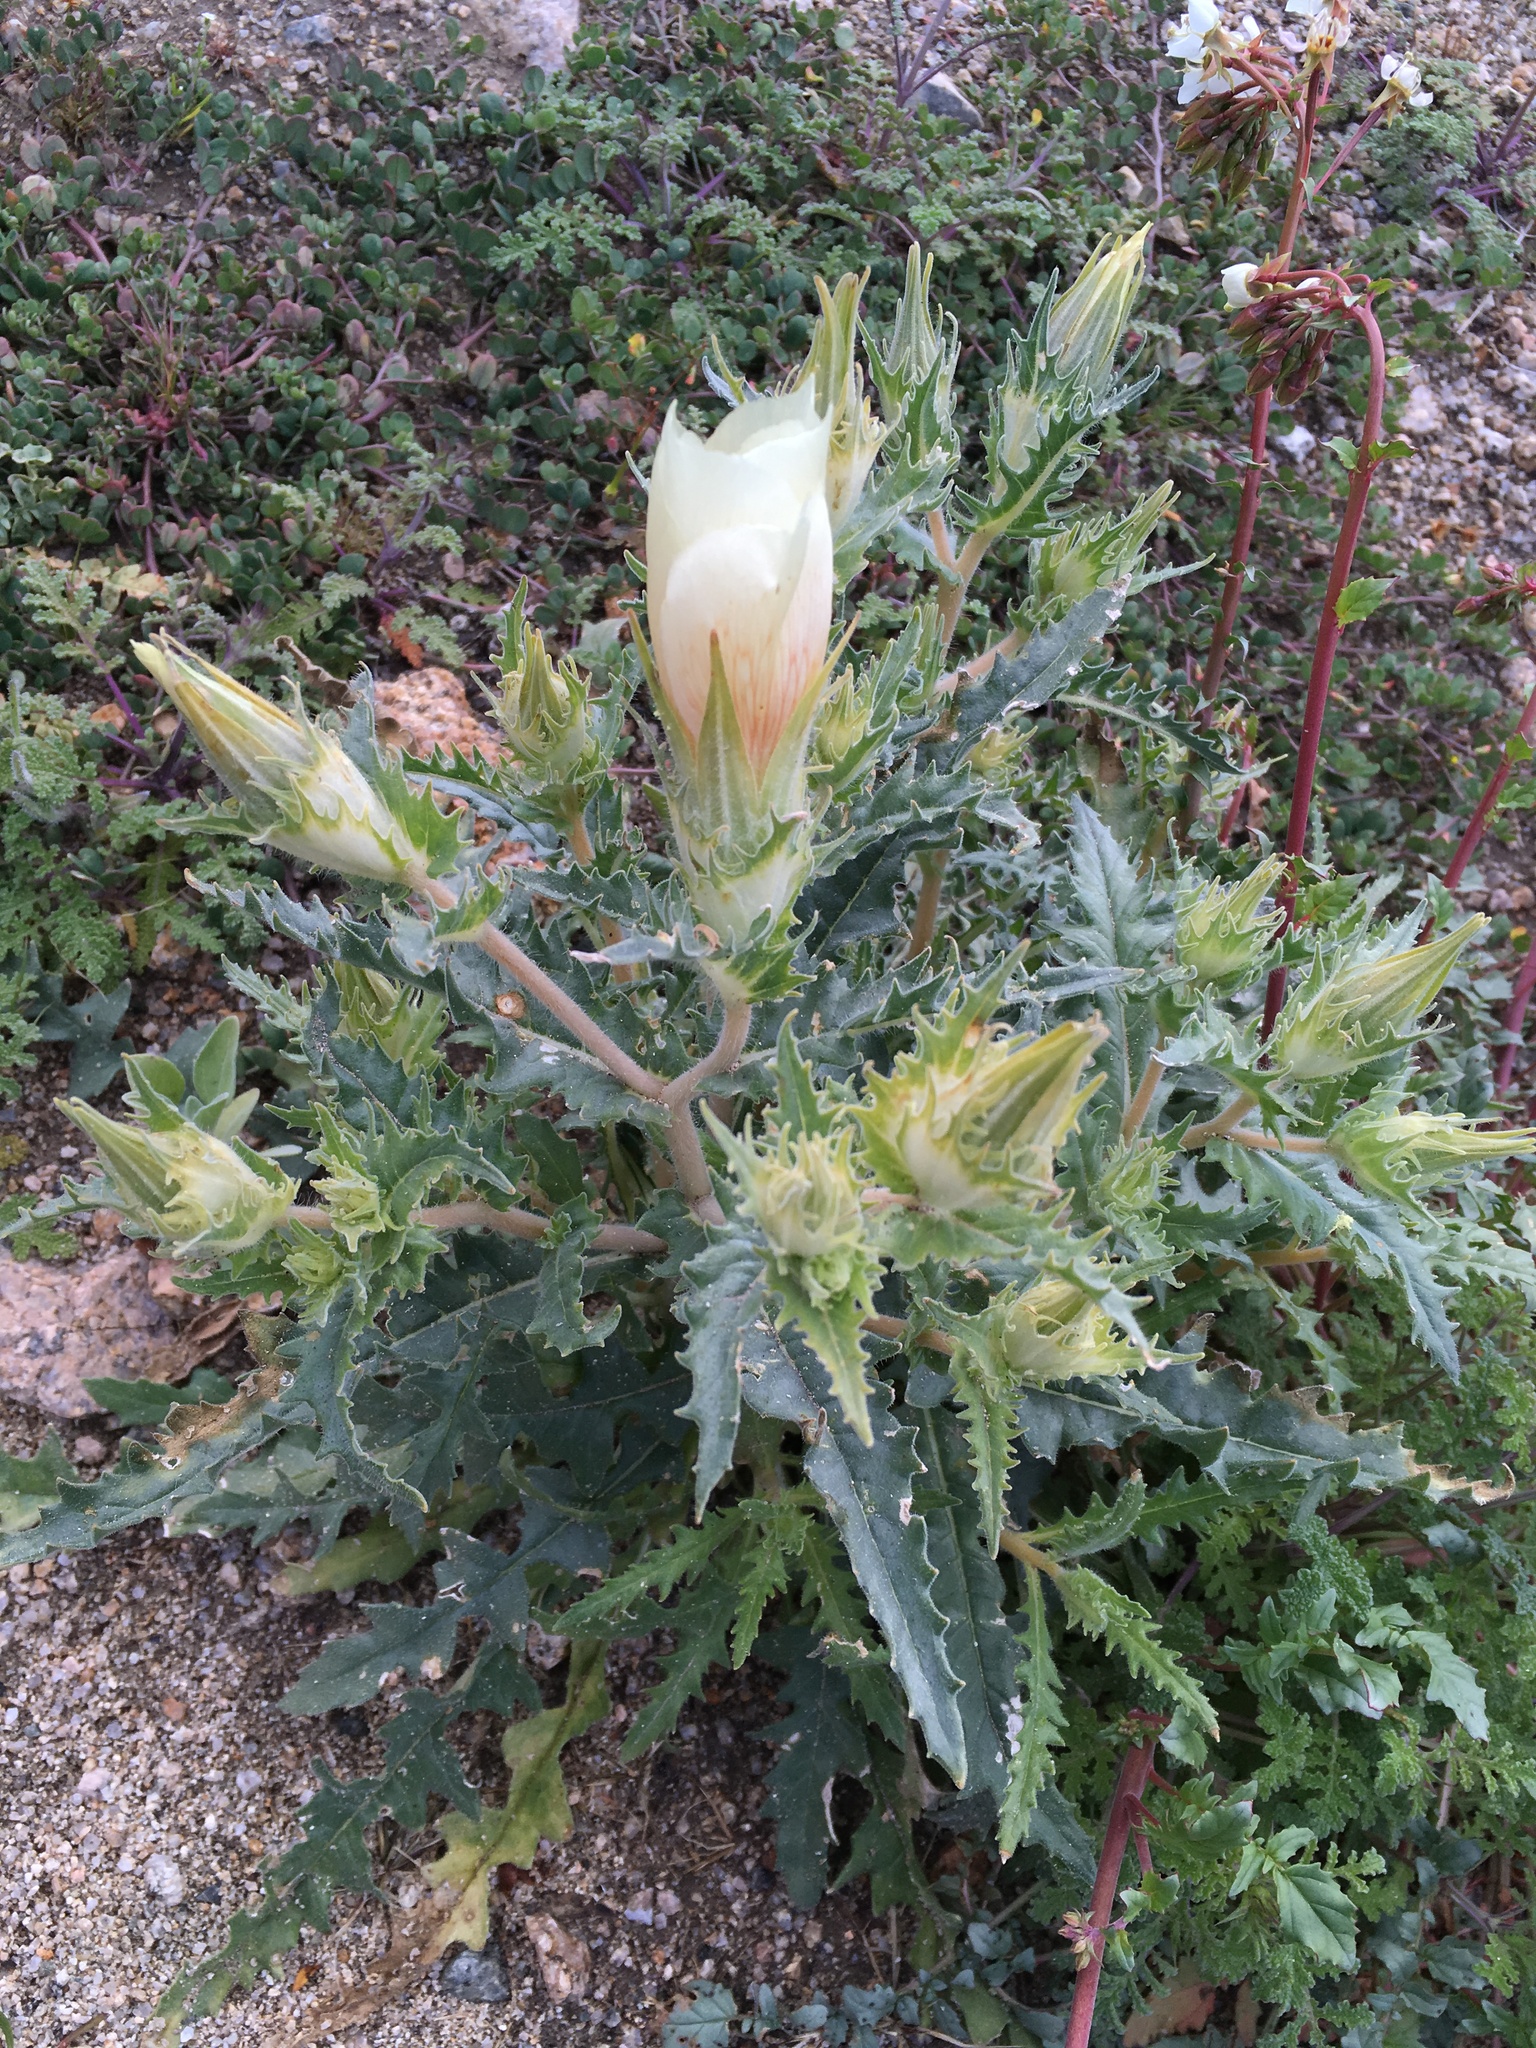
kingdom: Plantae
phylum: Tracheophyta
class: Magnoliopsida
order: Cornales
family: Loasaceae
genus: Mentzelia
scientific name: Mentzelia involucrata
